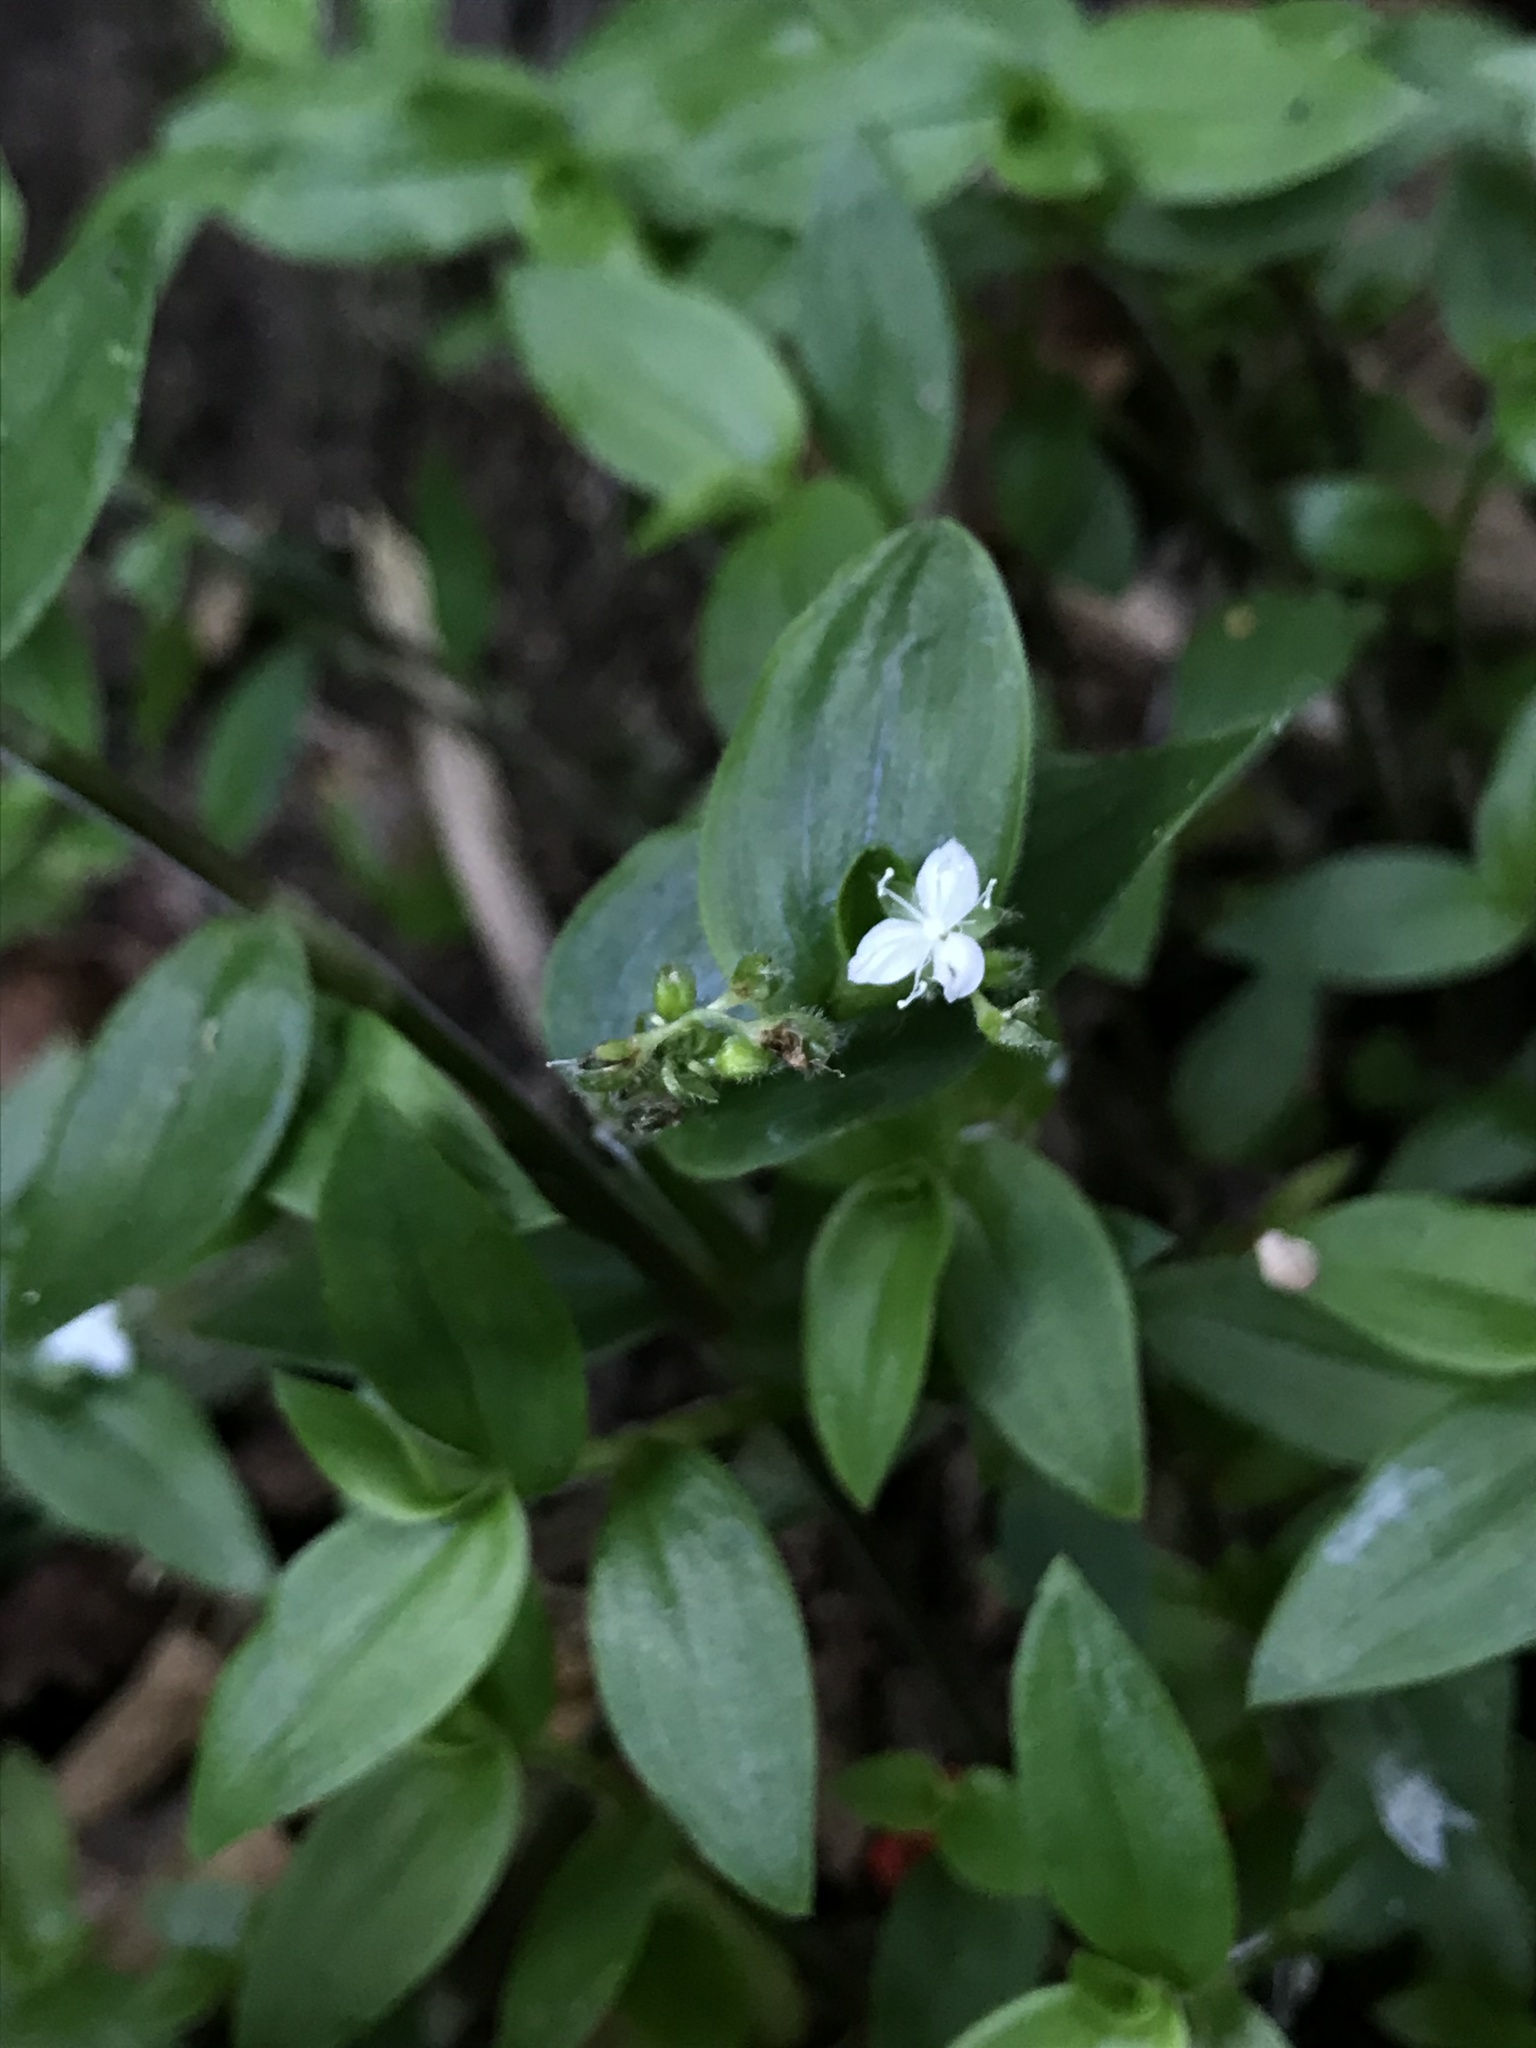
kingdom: Plantae
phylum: Tracheophyta
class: Liliopsida
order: Commelinales
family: Commelinaceae
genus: Callisia
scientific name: Callisia gracilis
